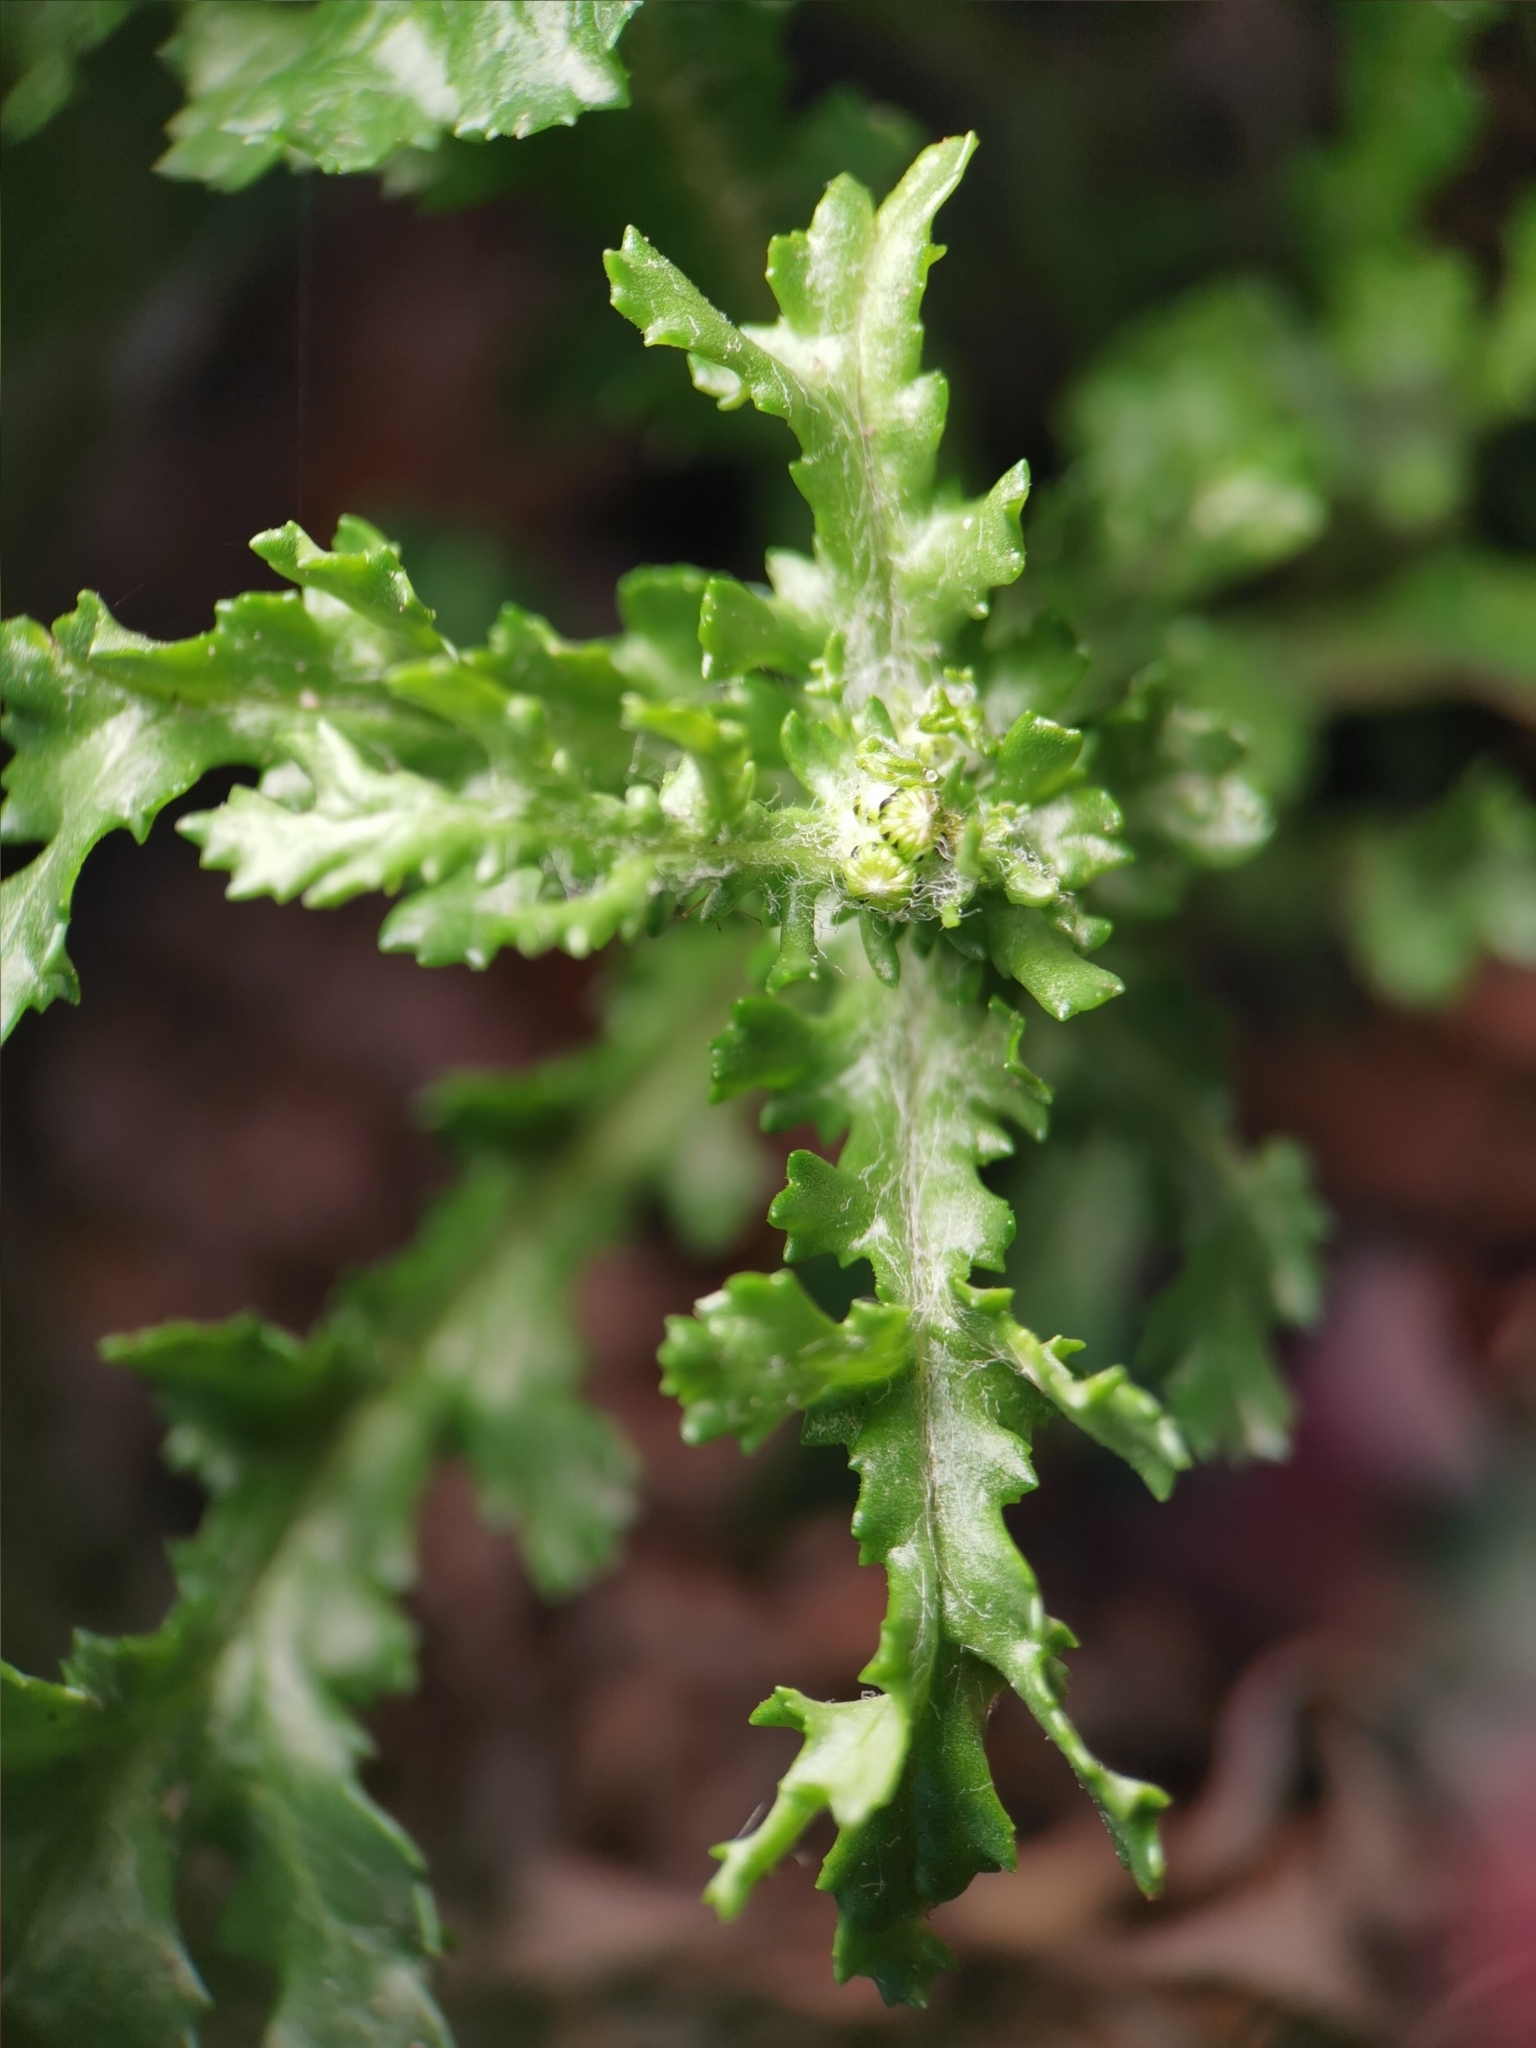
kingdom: Plantae
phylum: Tracheophyta
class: Magnoliopsida
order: Asterales
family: Asteraceae
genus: Senecio
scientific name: Senecio vulgaris
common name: Old-man-in-the-spring
